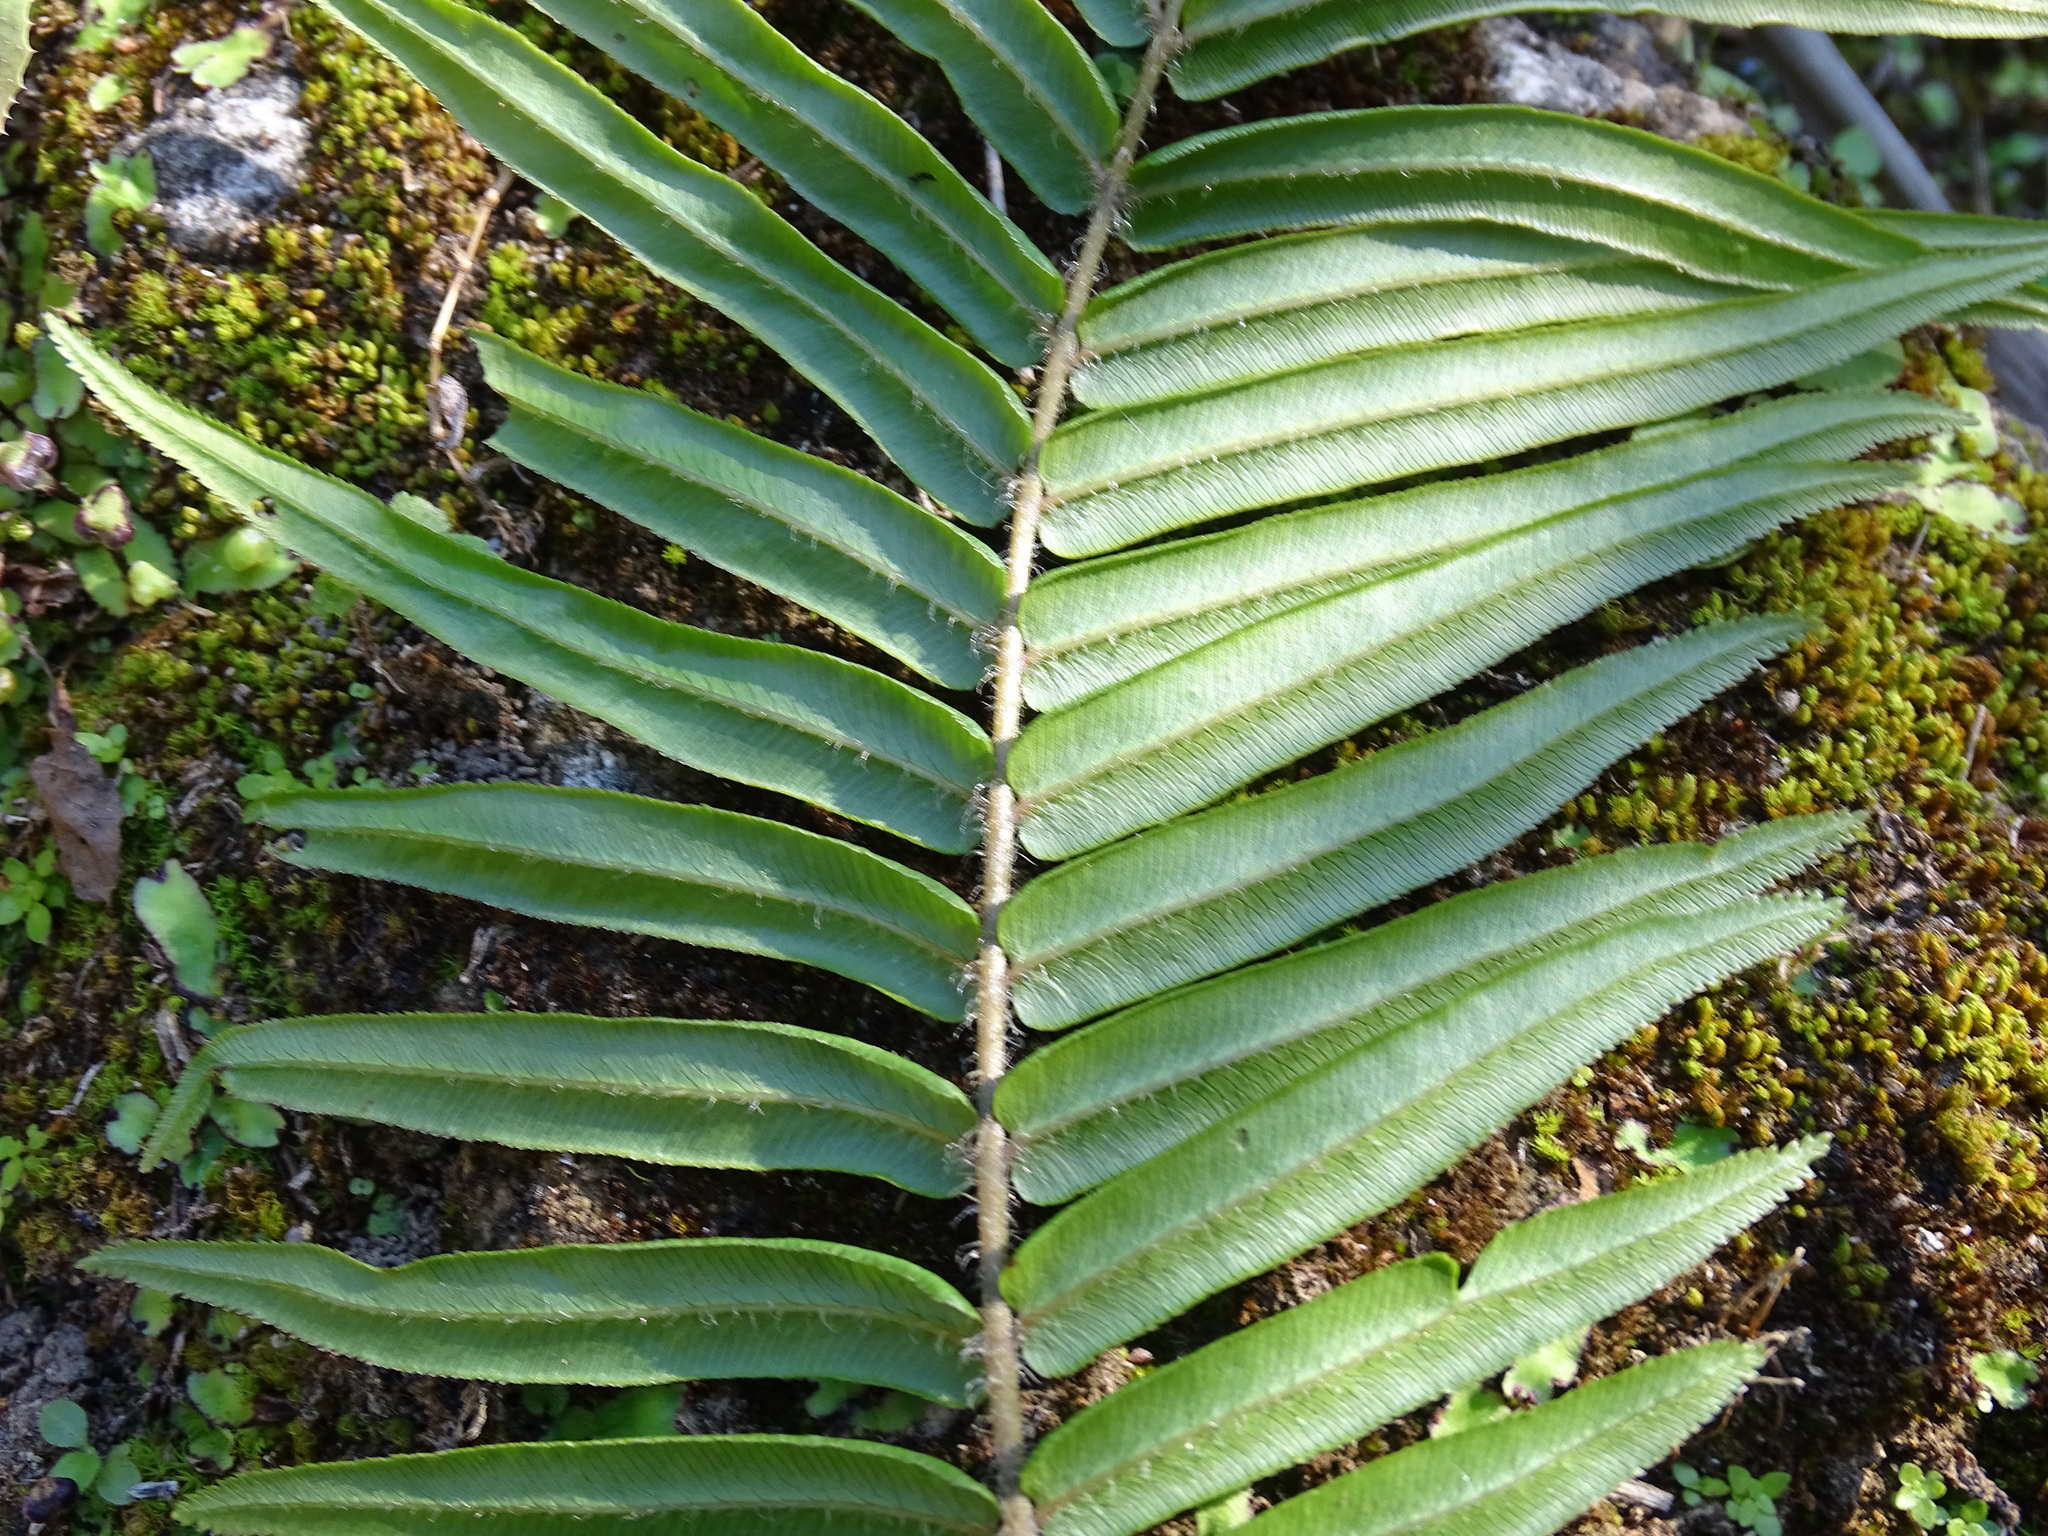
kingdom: Plantae
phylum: Tracheophyta
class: Polypodiopsida
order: Polypodiales
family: Pteridaceae
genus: Pteris
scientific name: Pteris vittata
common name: Ladder brake
